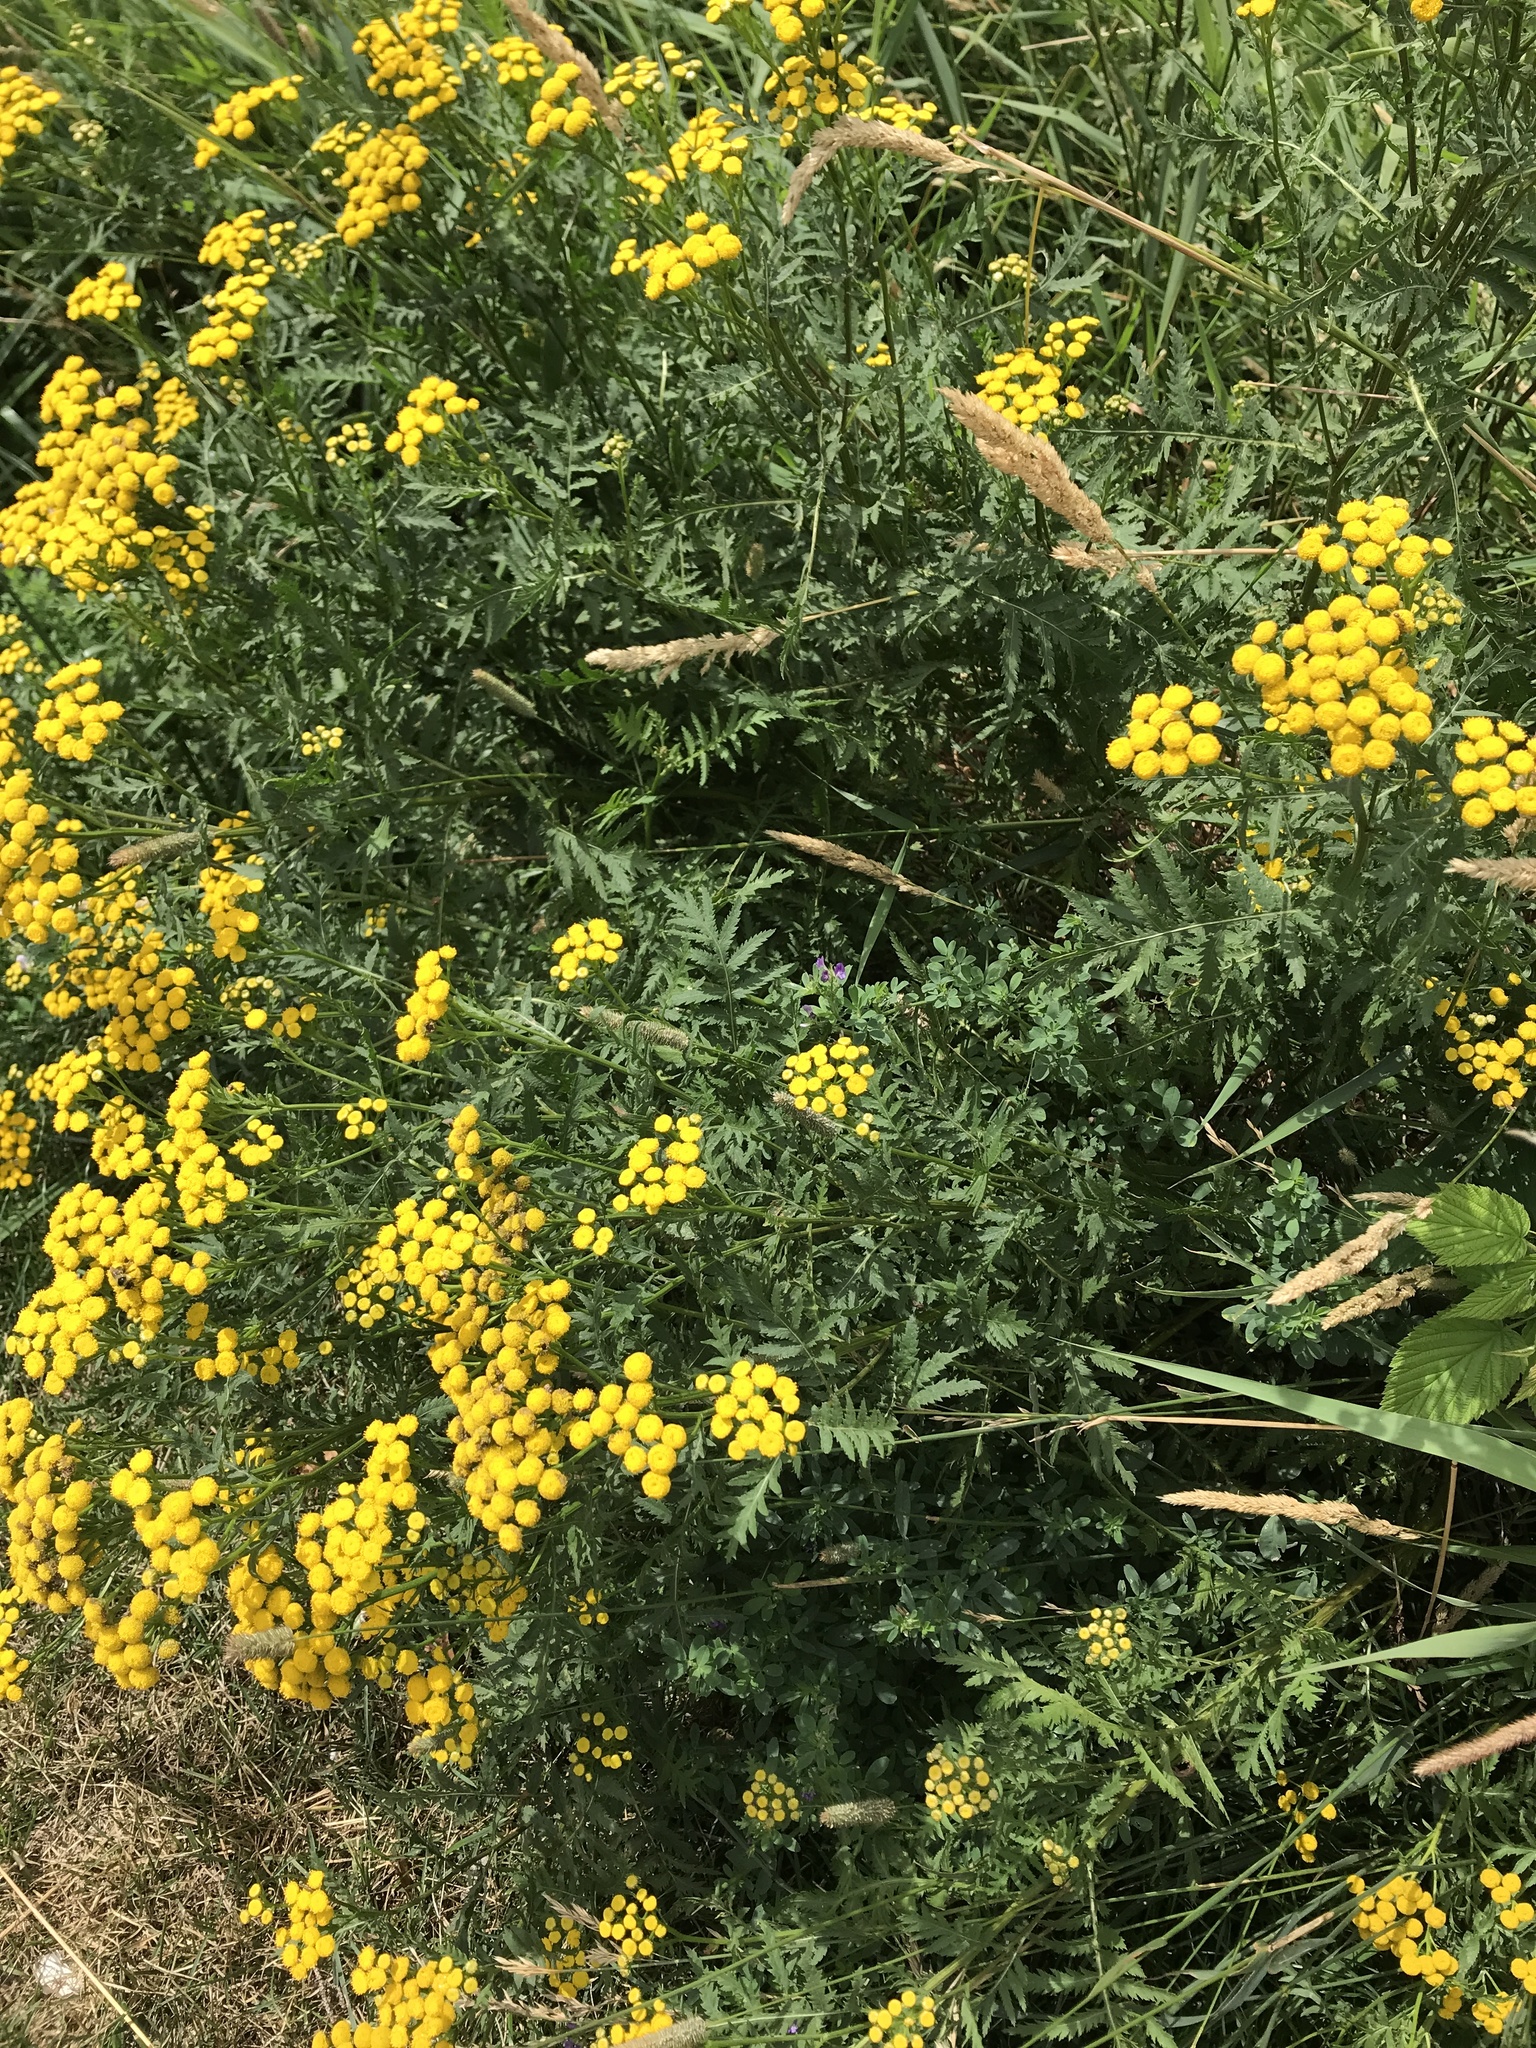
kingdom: Plantae
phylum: Tracheophyta
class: Magnoliopsida
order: Asterales
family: Asteraceae
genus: Tanacetum
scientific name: Tanacetum vulgare
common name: Common tansy
